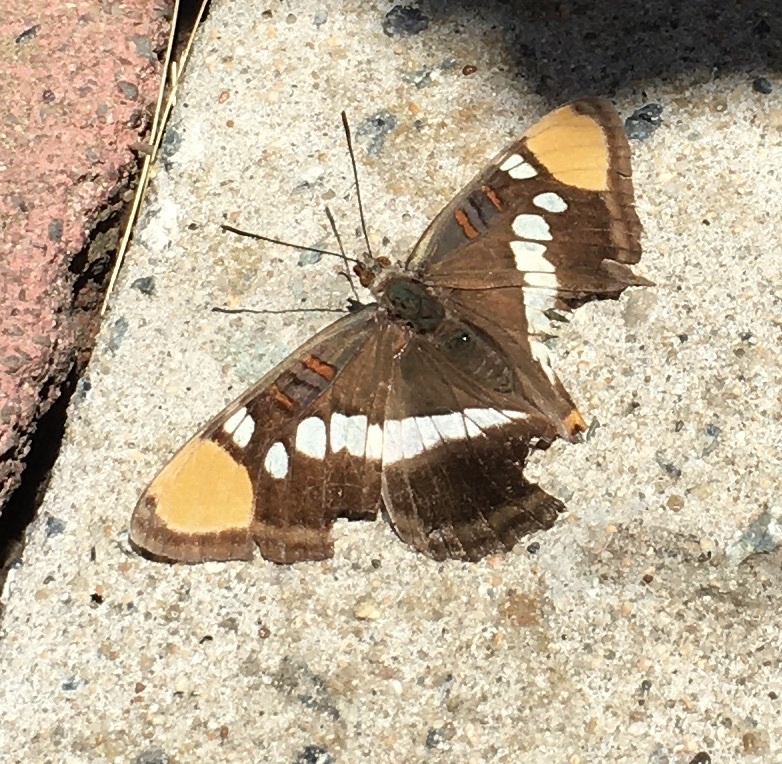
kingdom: Animalia
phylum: Arthropoda
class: Insecta
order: Lepidoptera
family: Nymphalidae
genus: Limenitis
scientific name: Limenitis bredowii
